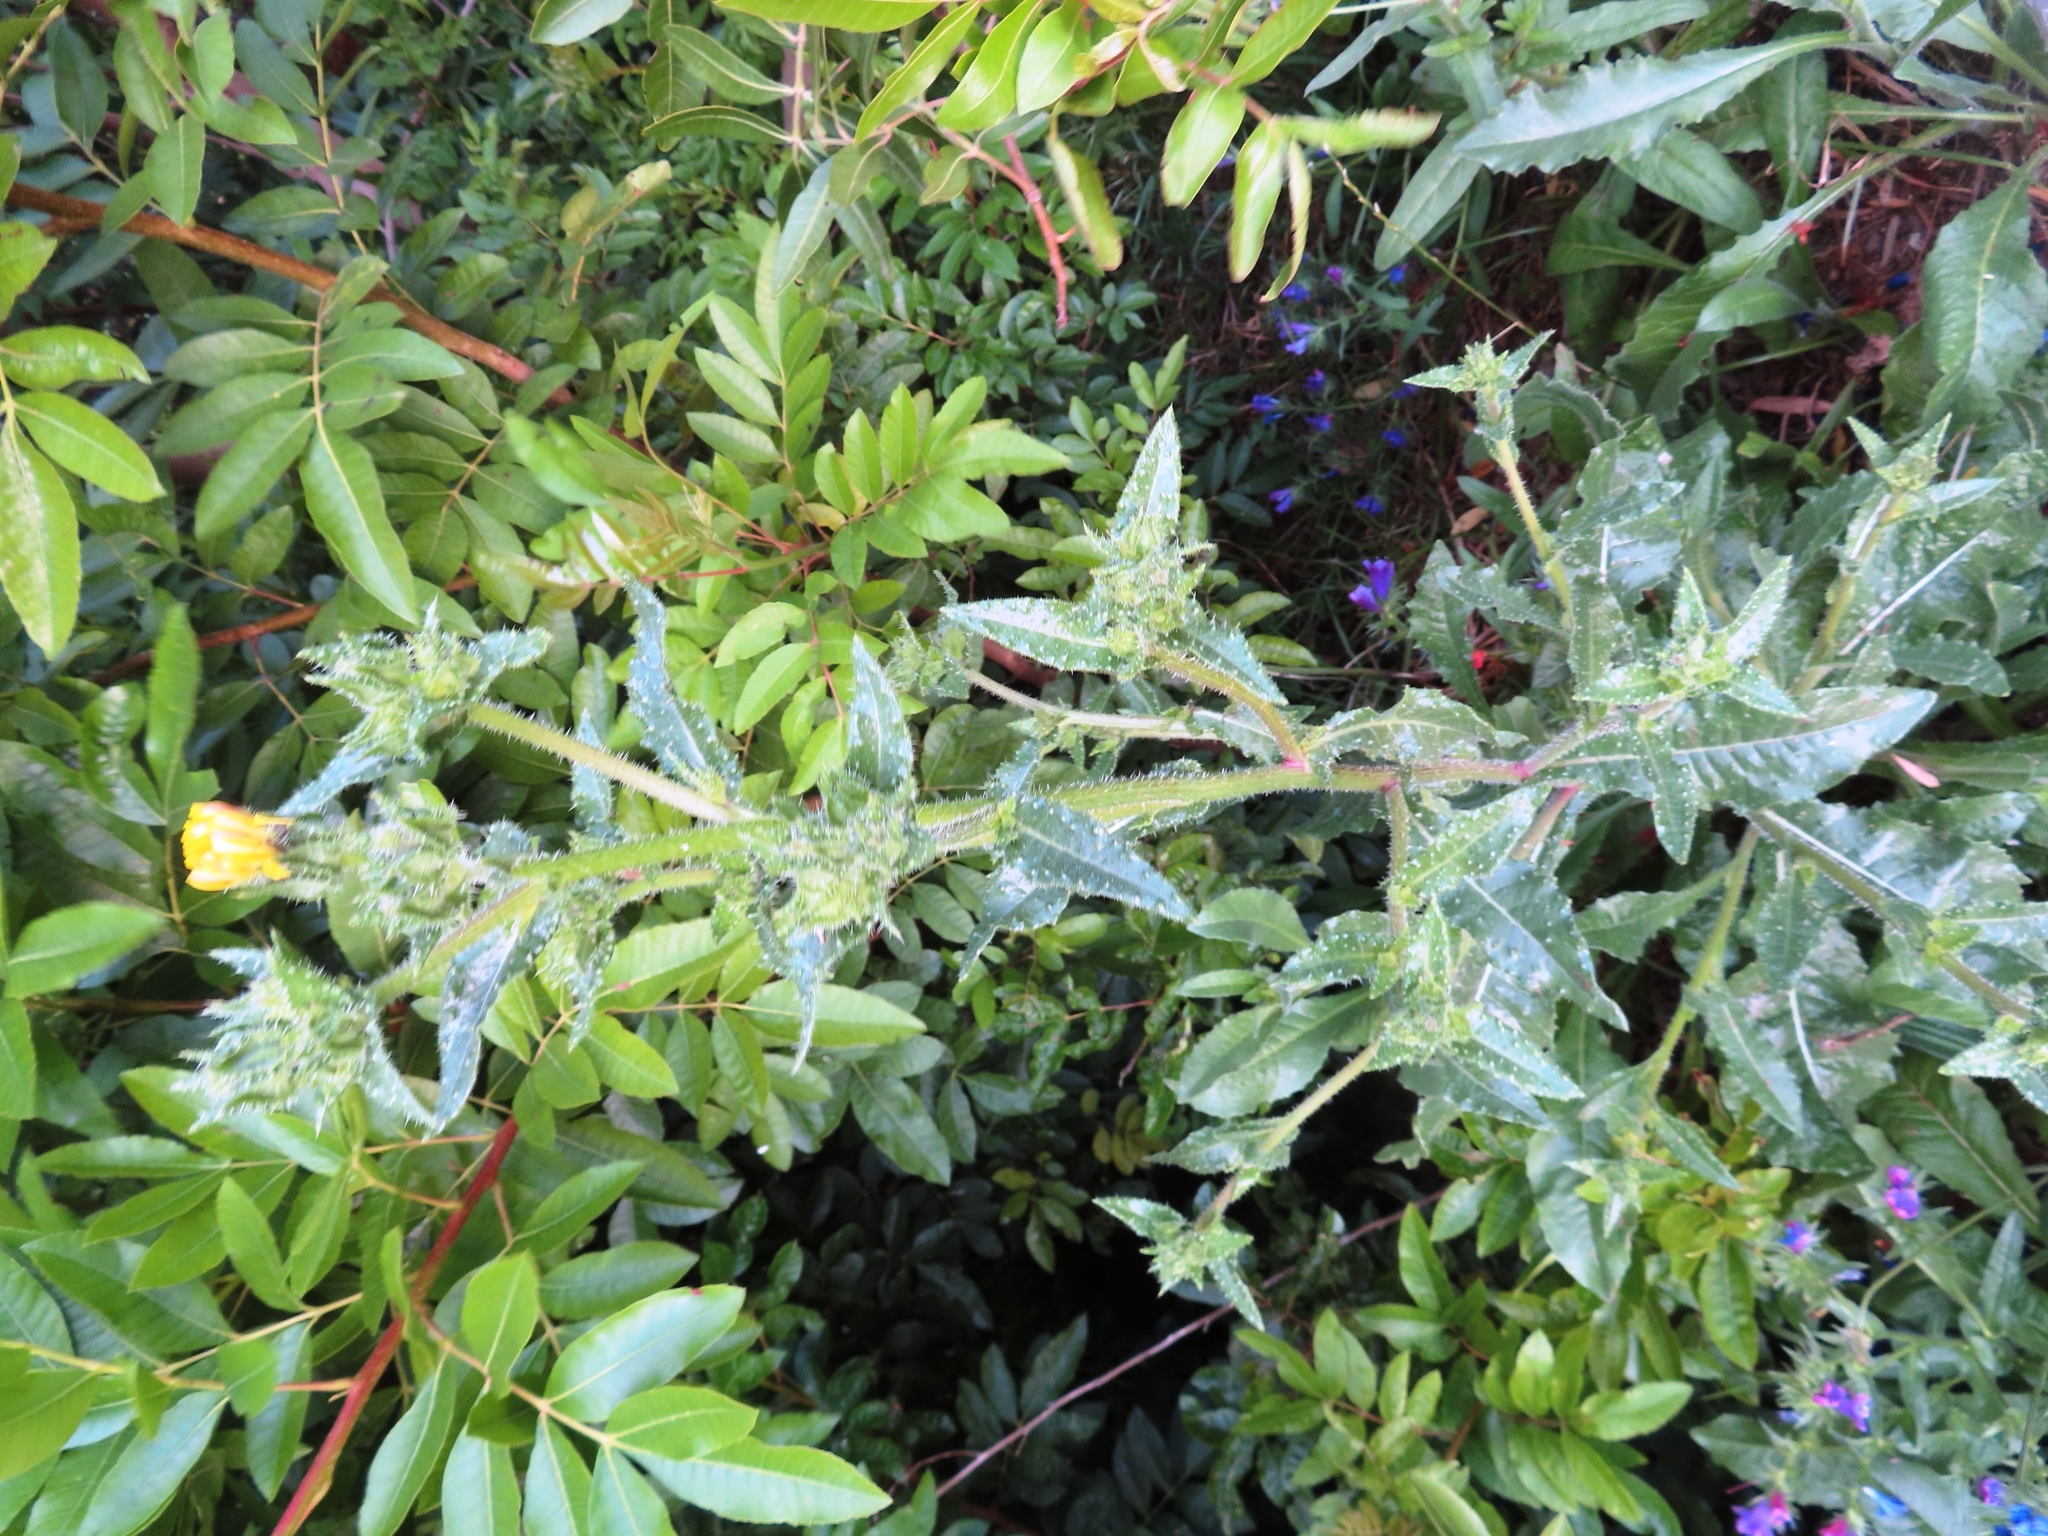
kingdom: Plantae
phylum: Tracheophyta
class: Magnoliopsida
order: Asterales
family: Asteraceae
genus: Helminthotheca
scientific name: Helminthotheca echioides
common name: Ox-tongue
